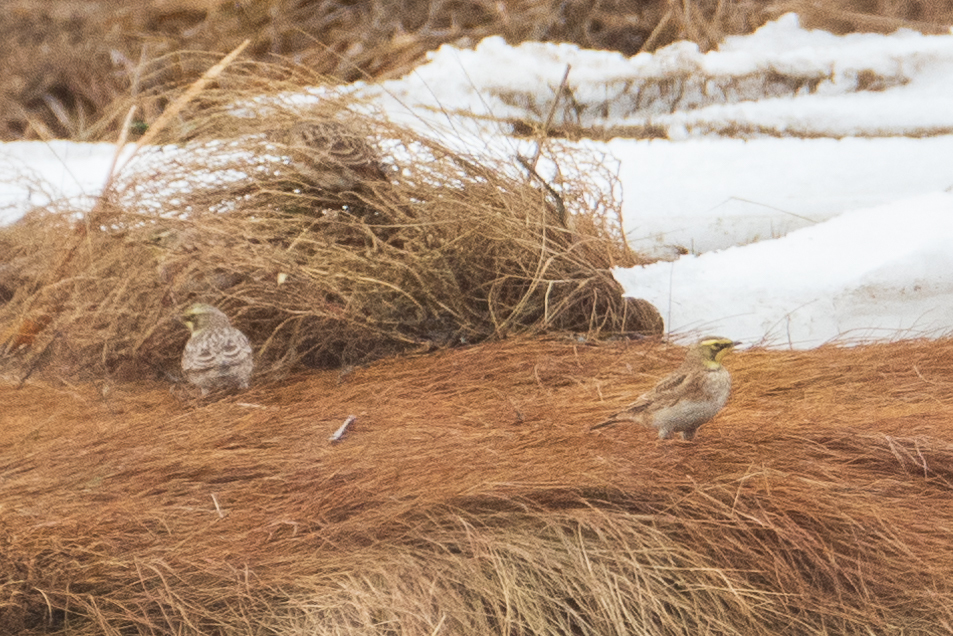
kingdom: Animalia
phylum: Chordata
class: Aves
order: Passeriformes
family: Alaudidae
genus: Eremophila
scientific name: Eremophila alpestris
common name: Horned lark
